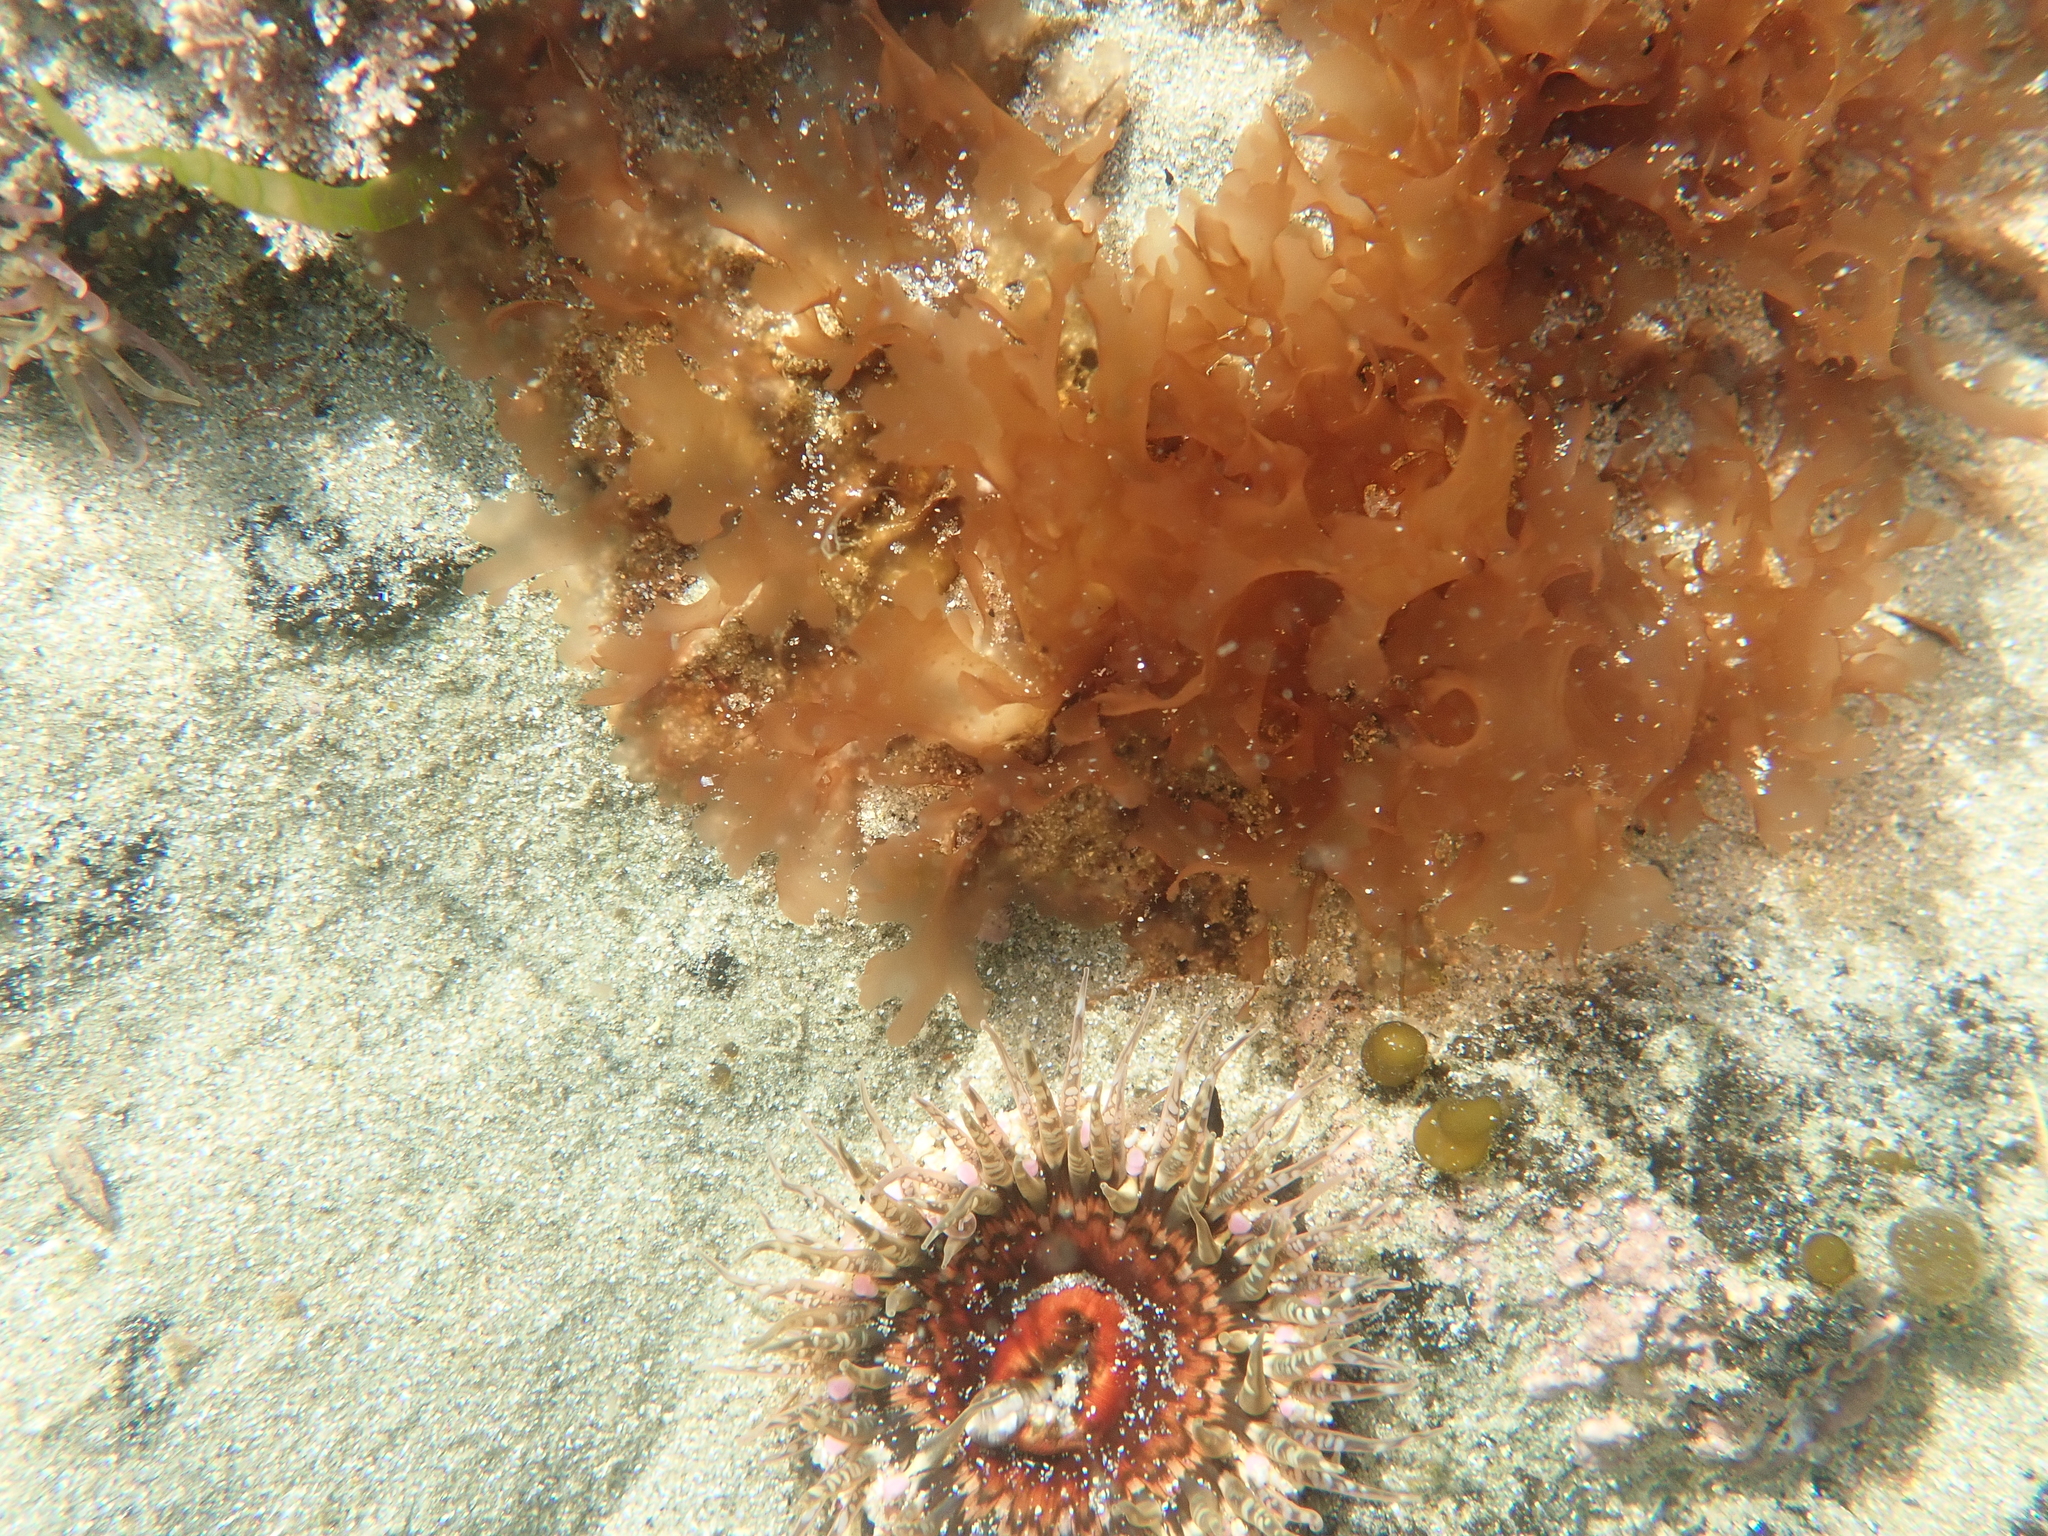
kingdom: Animalia
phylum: Cnidaria
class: Anthozoa
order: Actiniaria
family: Actiniidae
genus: Oulactis
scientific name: Oulactis muscosa
